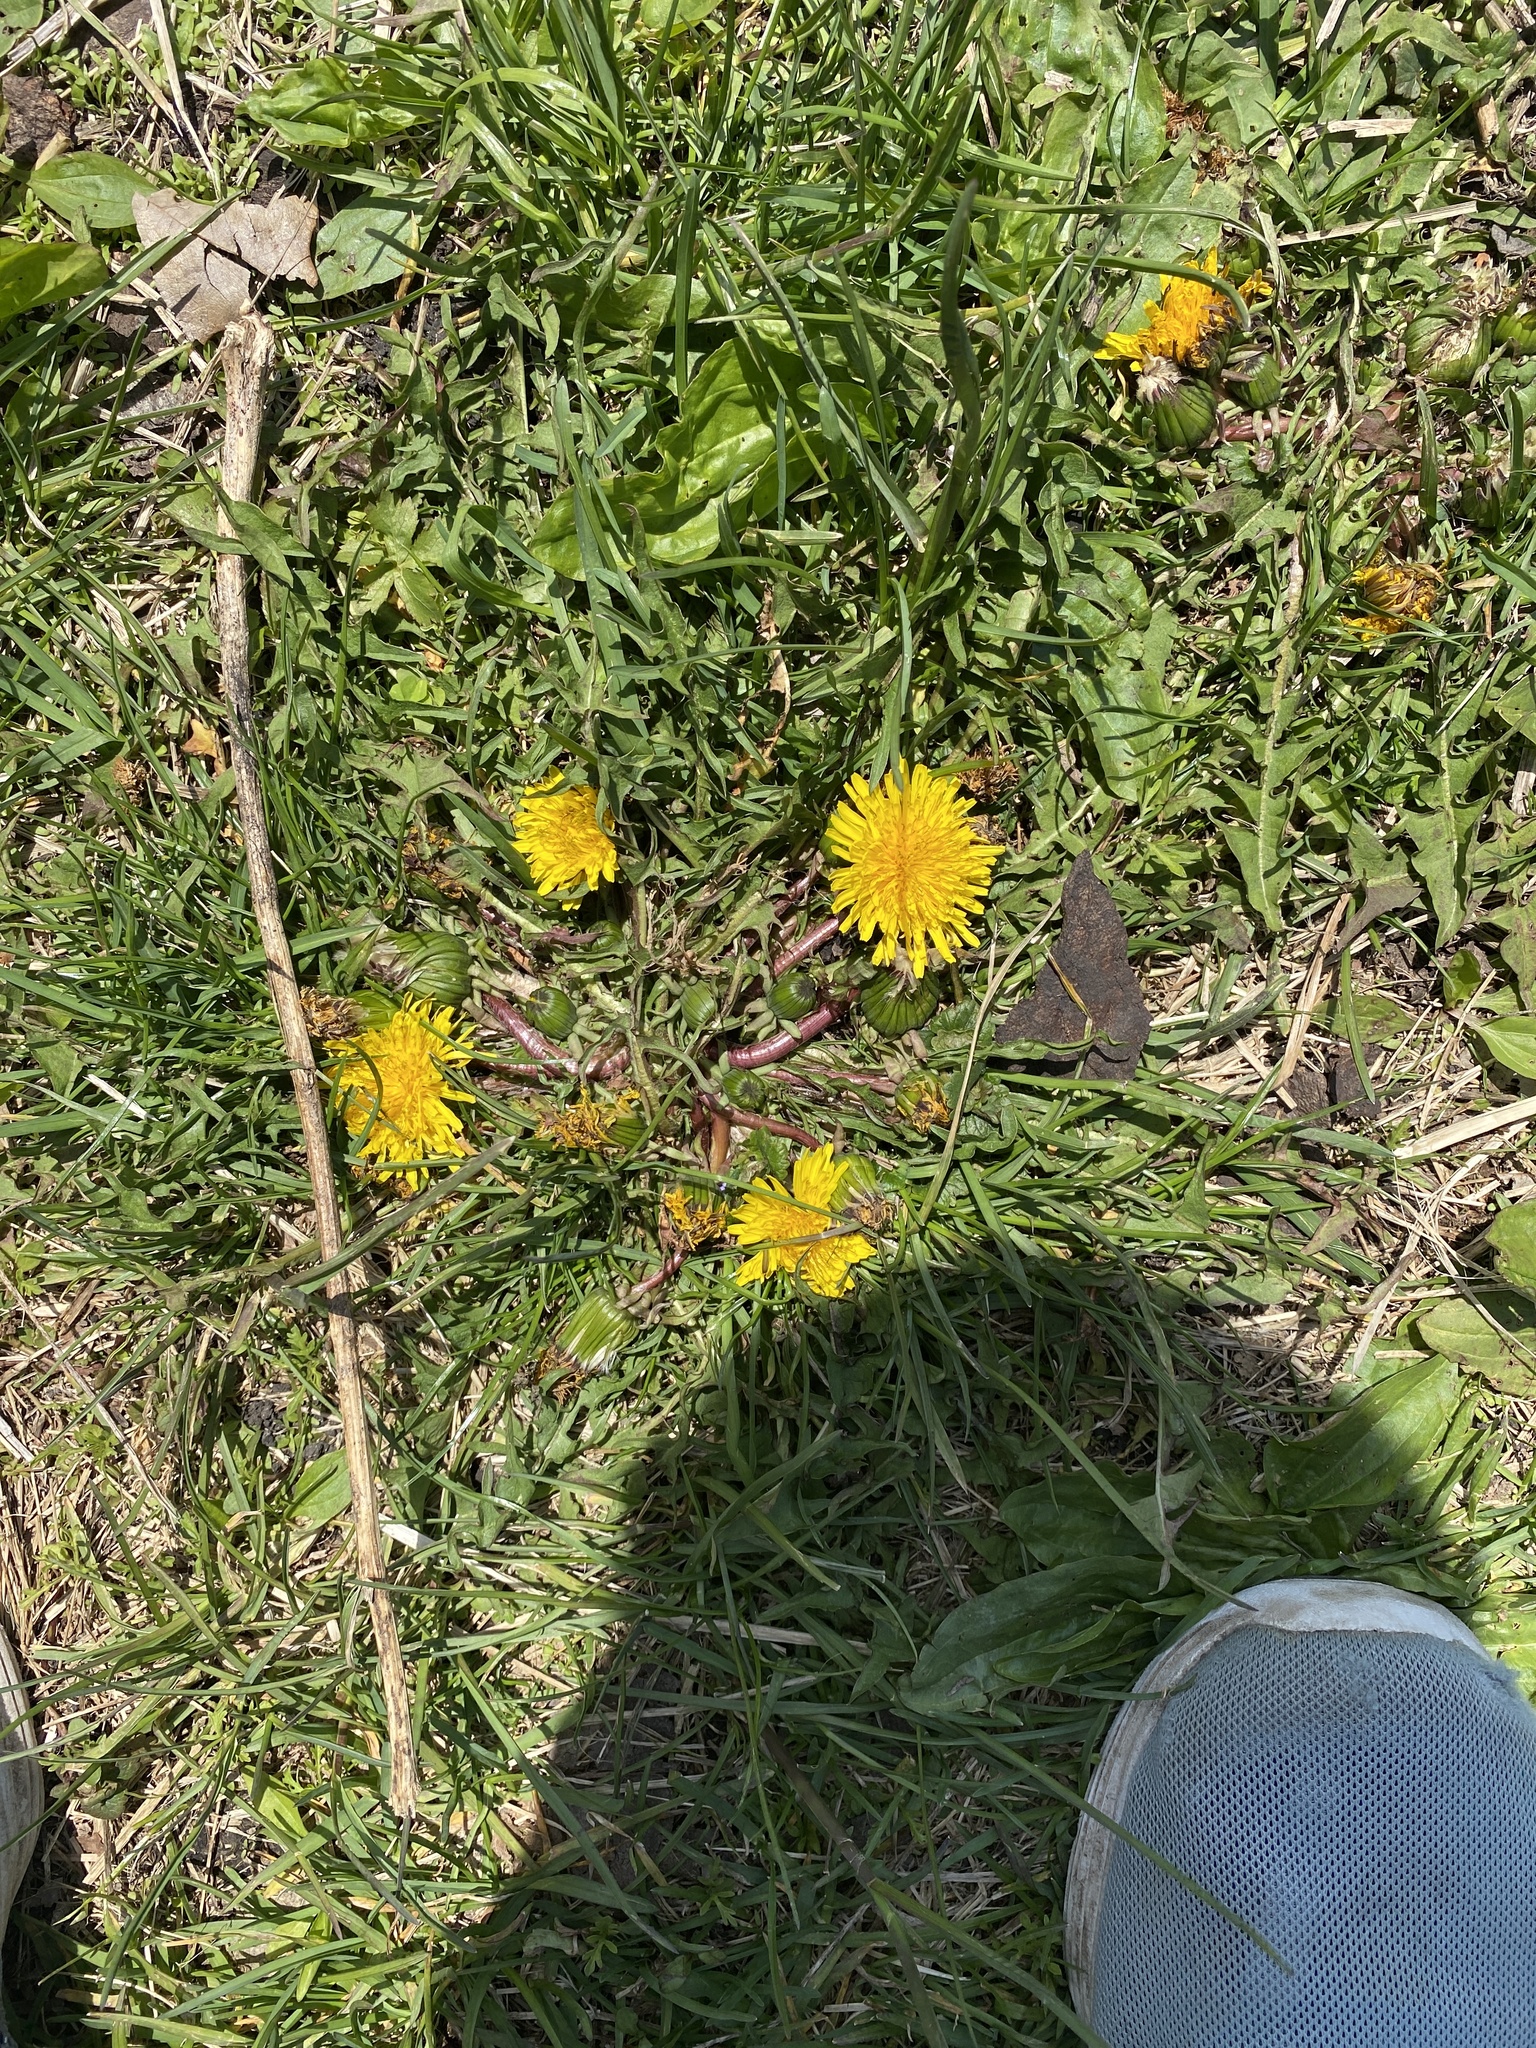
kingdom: Plantae
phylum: Tracheophyta
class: Magnoliopsida
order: Asterales
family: Asteraceae
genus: Taraxacum
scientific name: Taraxacum officinale
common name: Common dandelion
